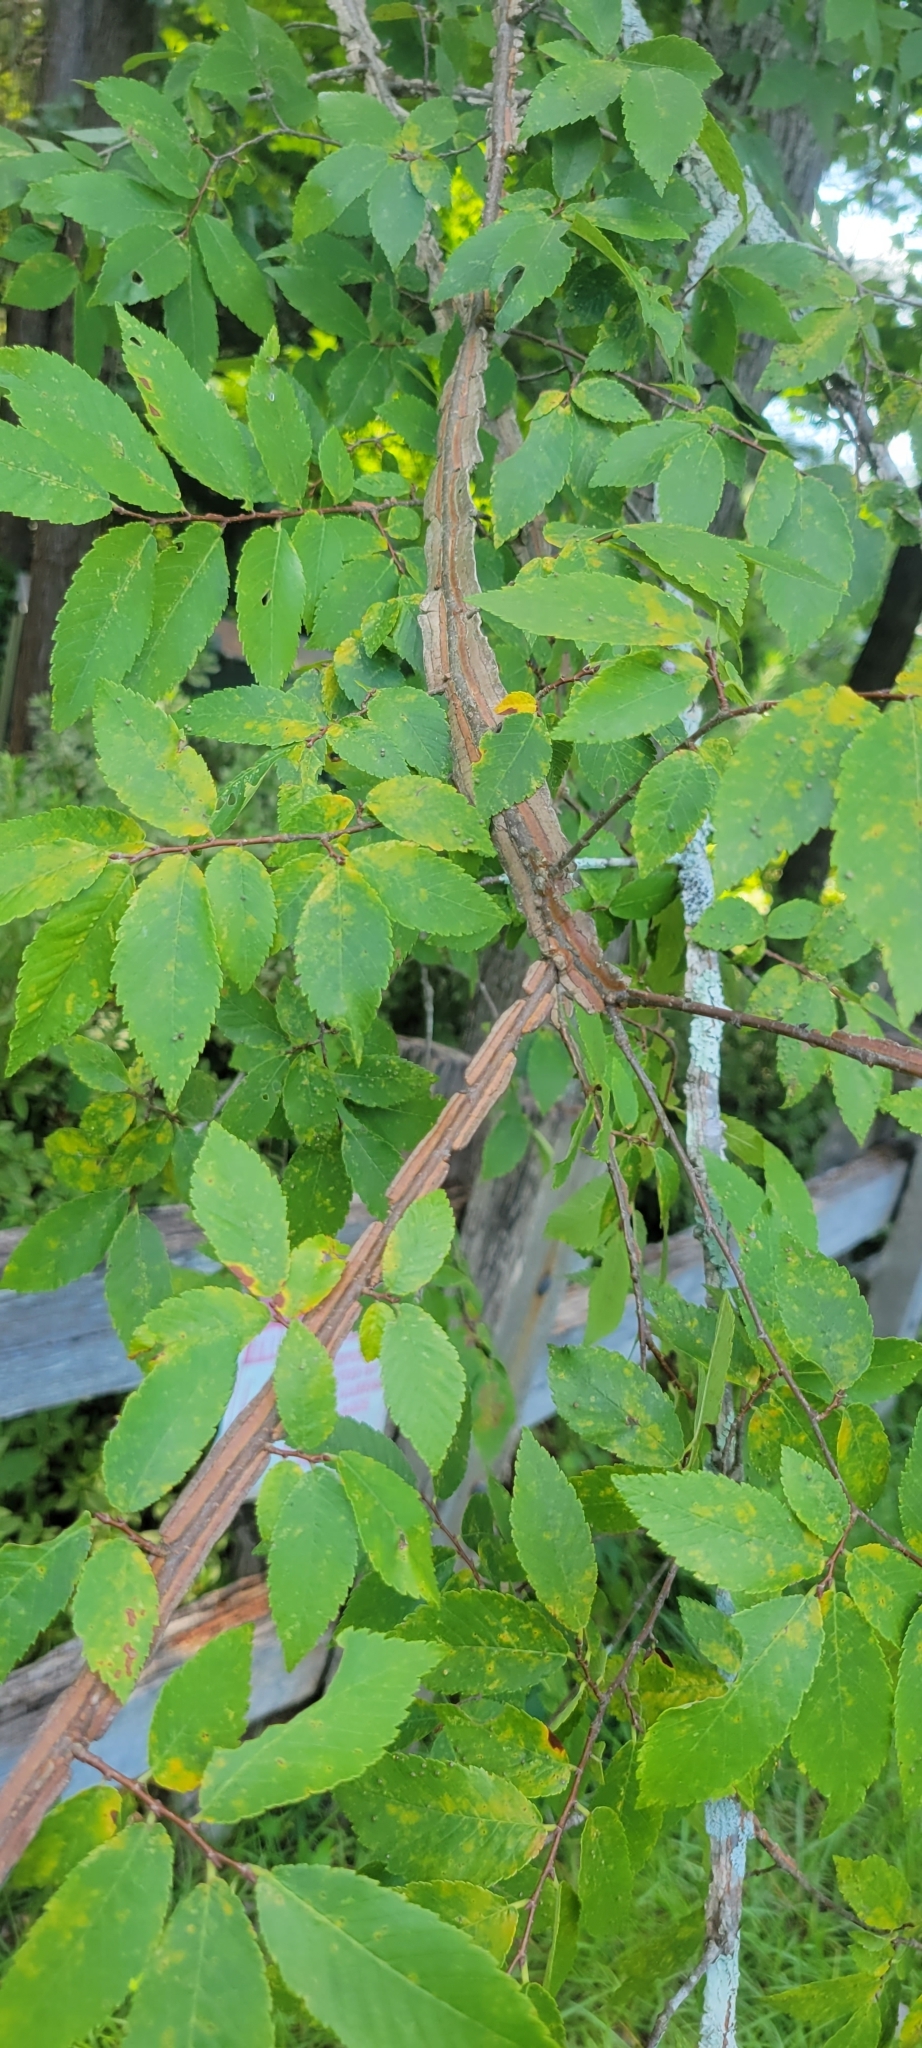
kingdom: Plantae
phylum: Tracheophyta
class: Magnoliopsida
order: Rosales
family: Ulmaceae
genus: Ulmus
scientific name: Ulmus alata
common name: Winged elm
